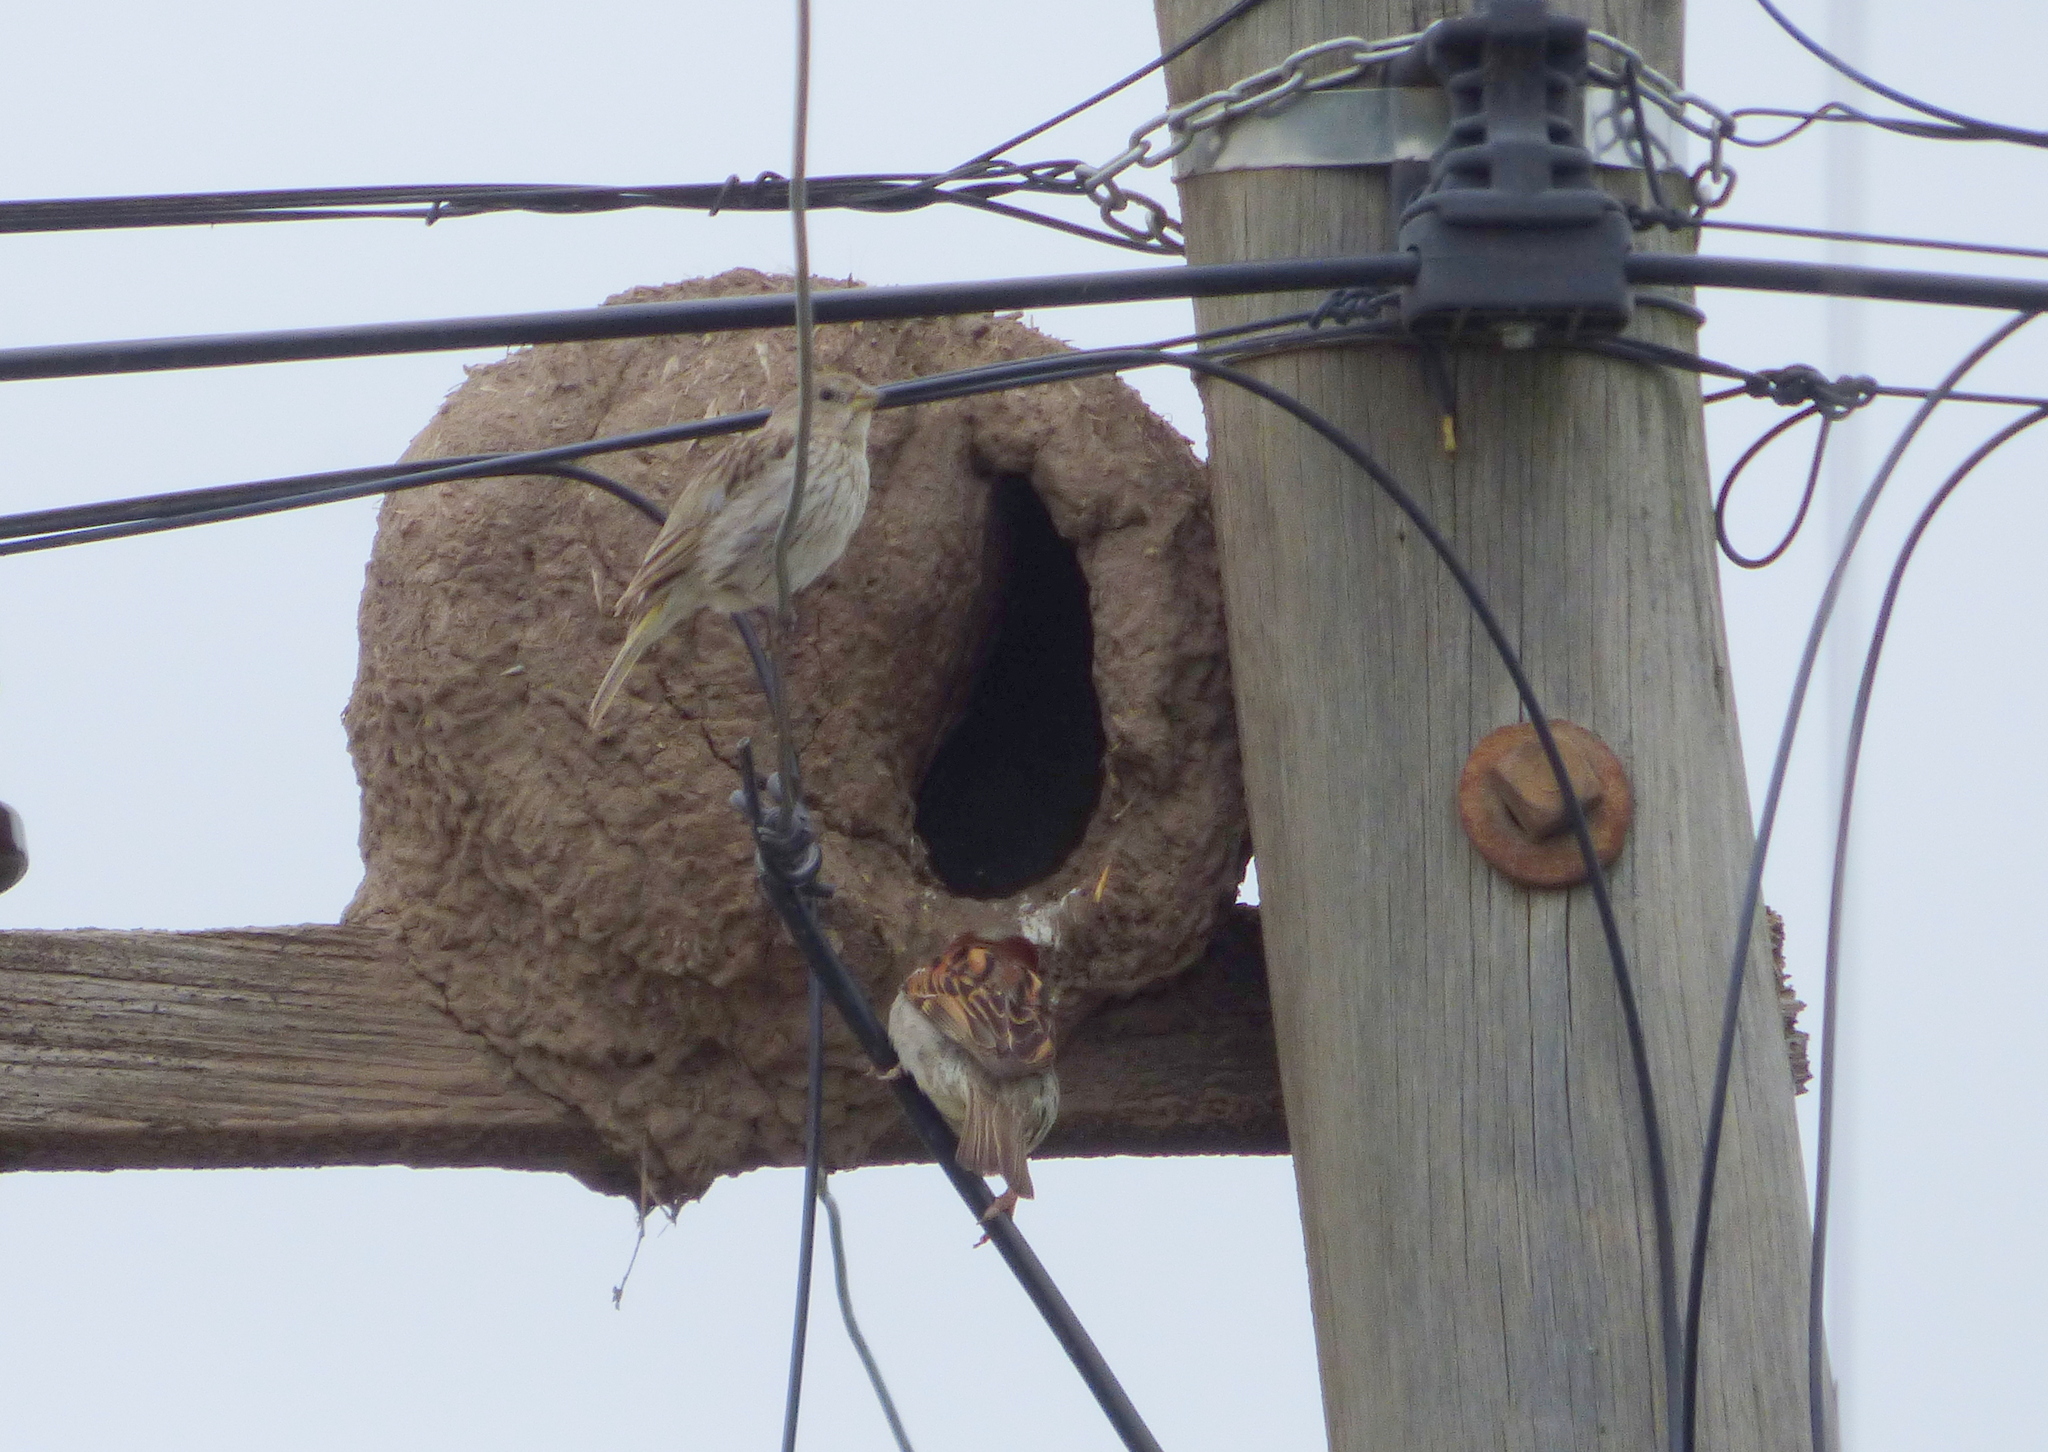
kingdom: Animalia
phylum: Chordata
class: Aves
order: Passeriformes
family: Thraupidae
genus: Sicalis
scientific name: Sicalis flaveola
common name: Saffron finch
